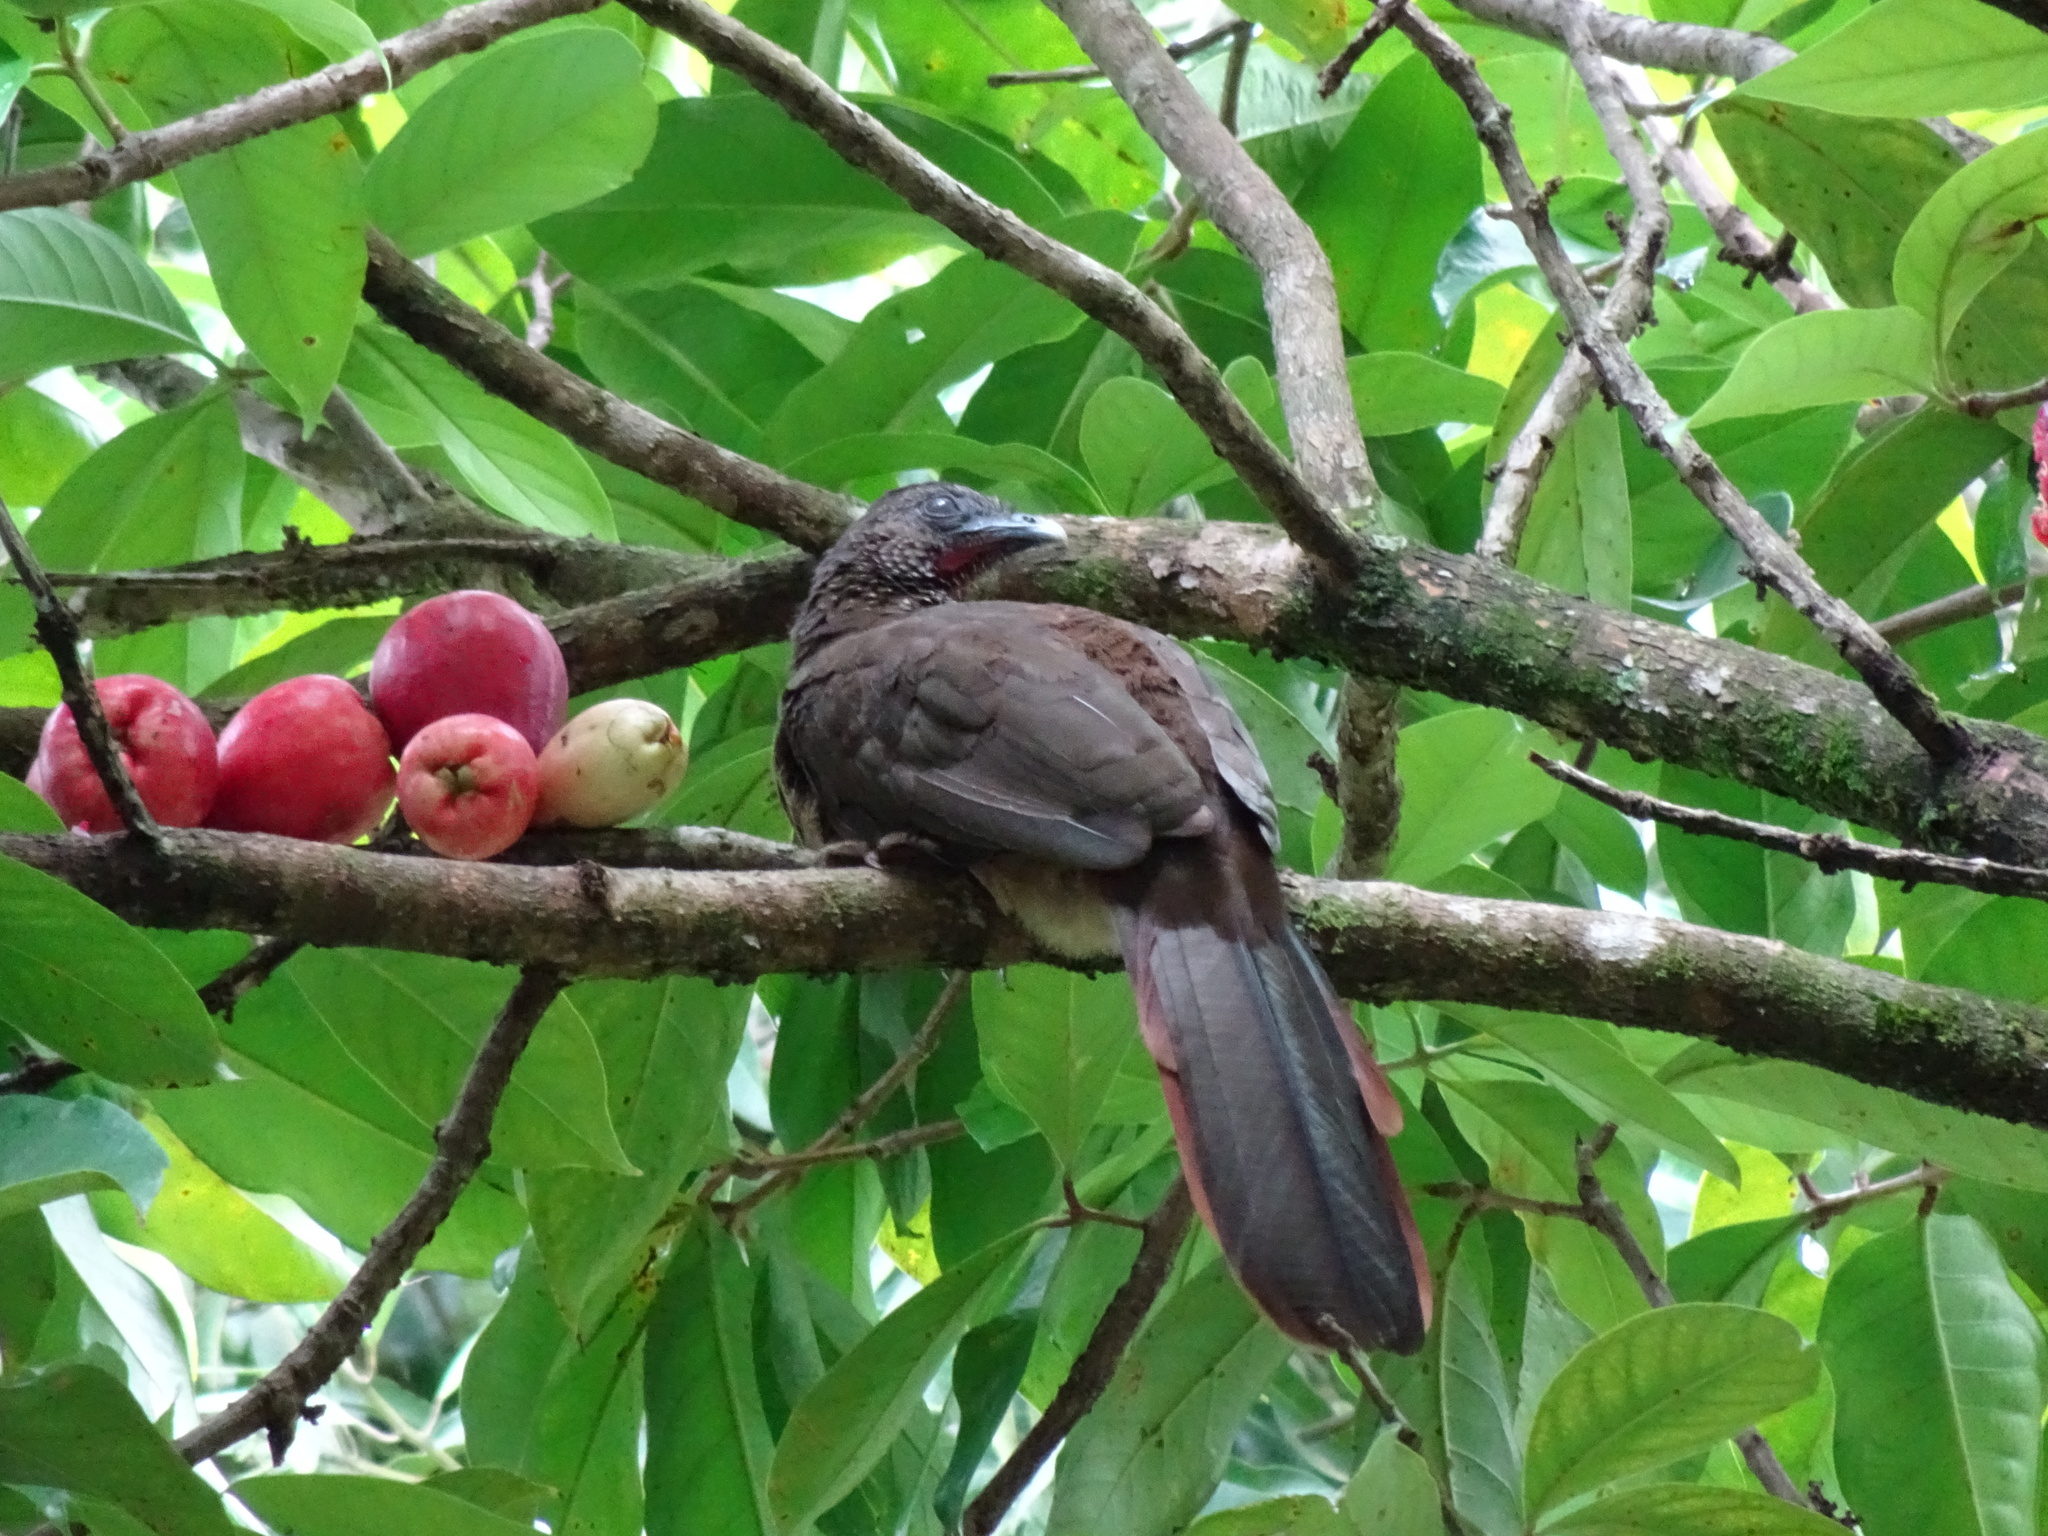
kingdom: Animalia
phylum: Chordata
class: Aves
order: Galliformes
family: Cracidae
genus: Ortalis
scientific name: Ortalis guttata
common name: Speckled chachalaca
